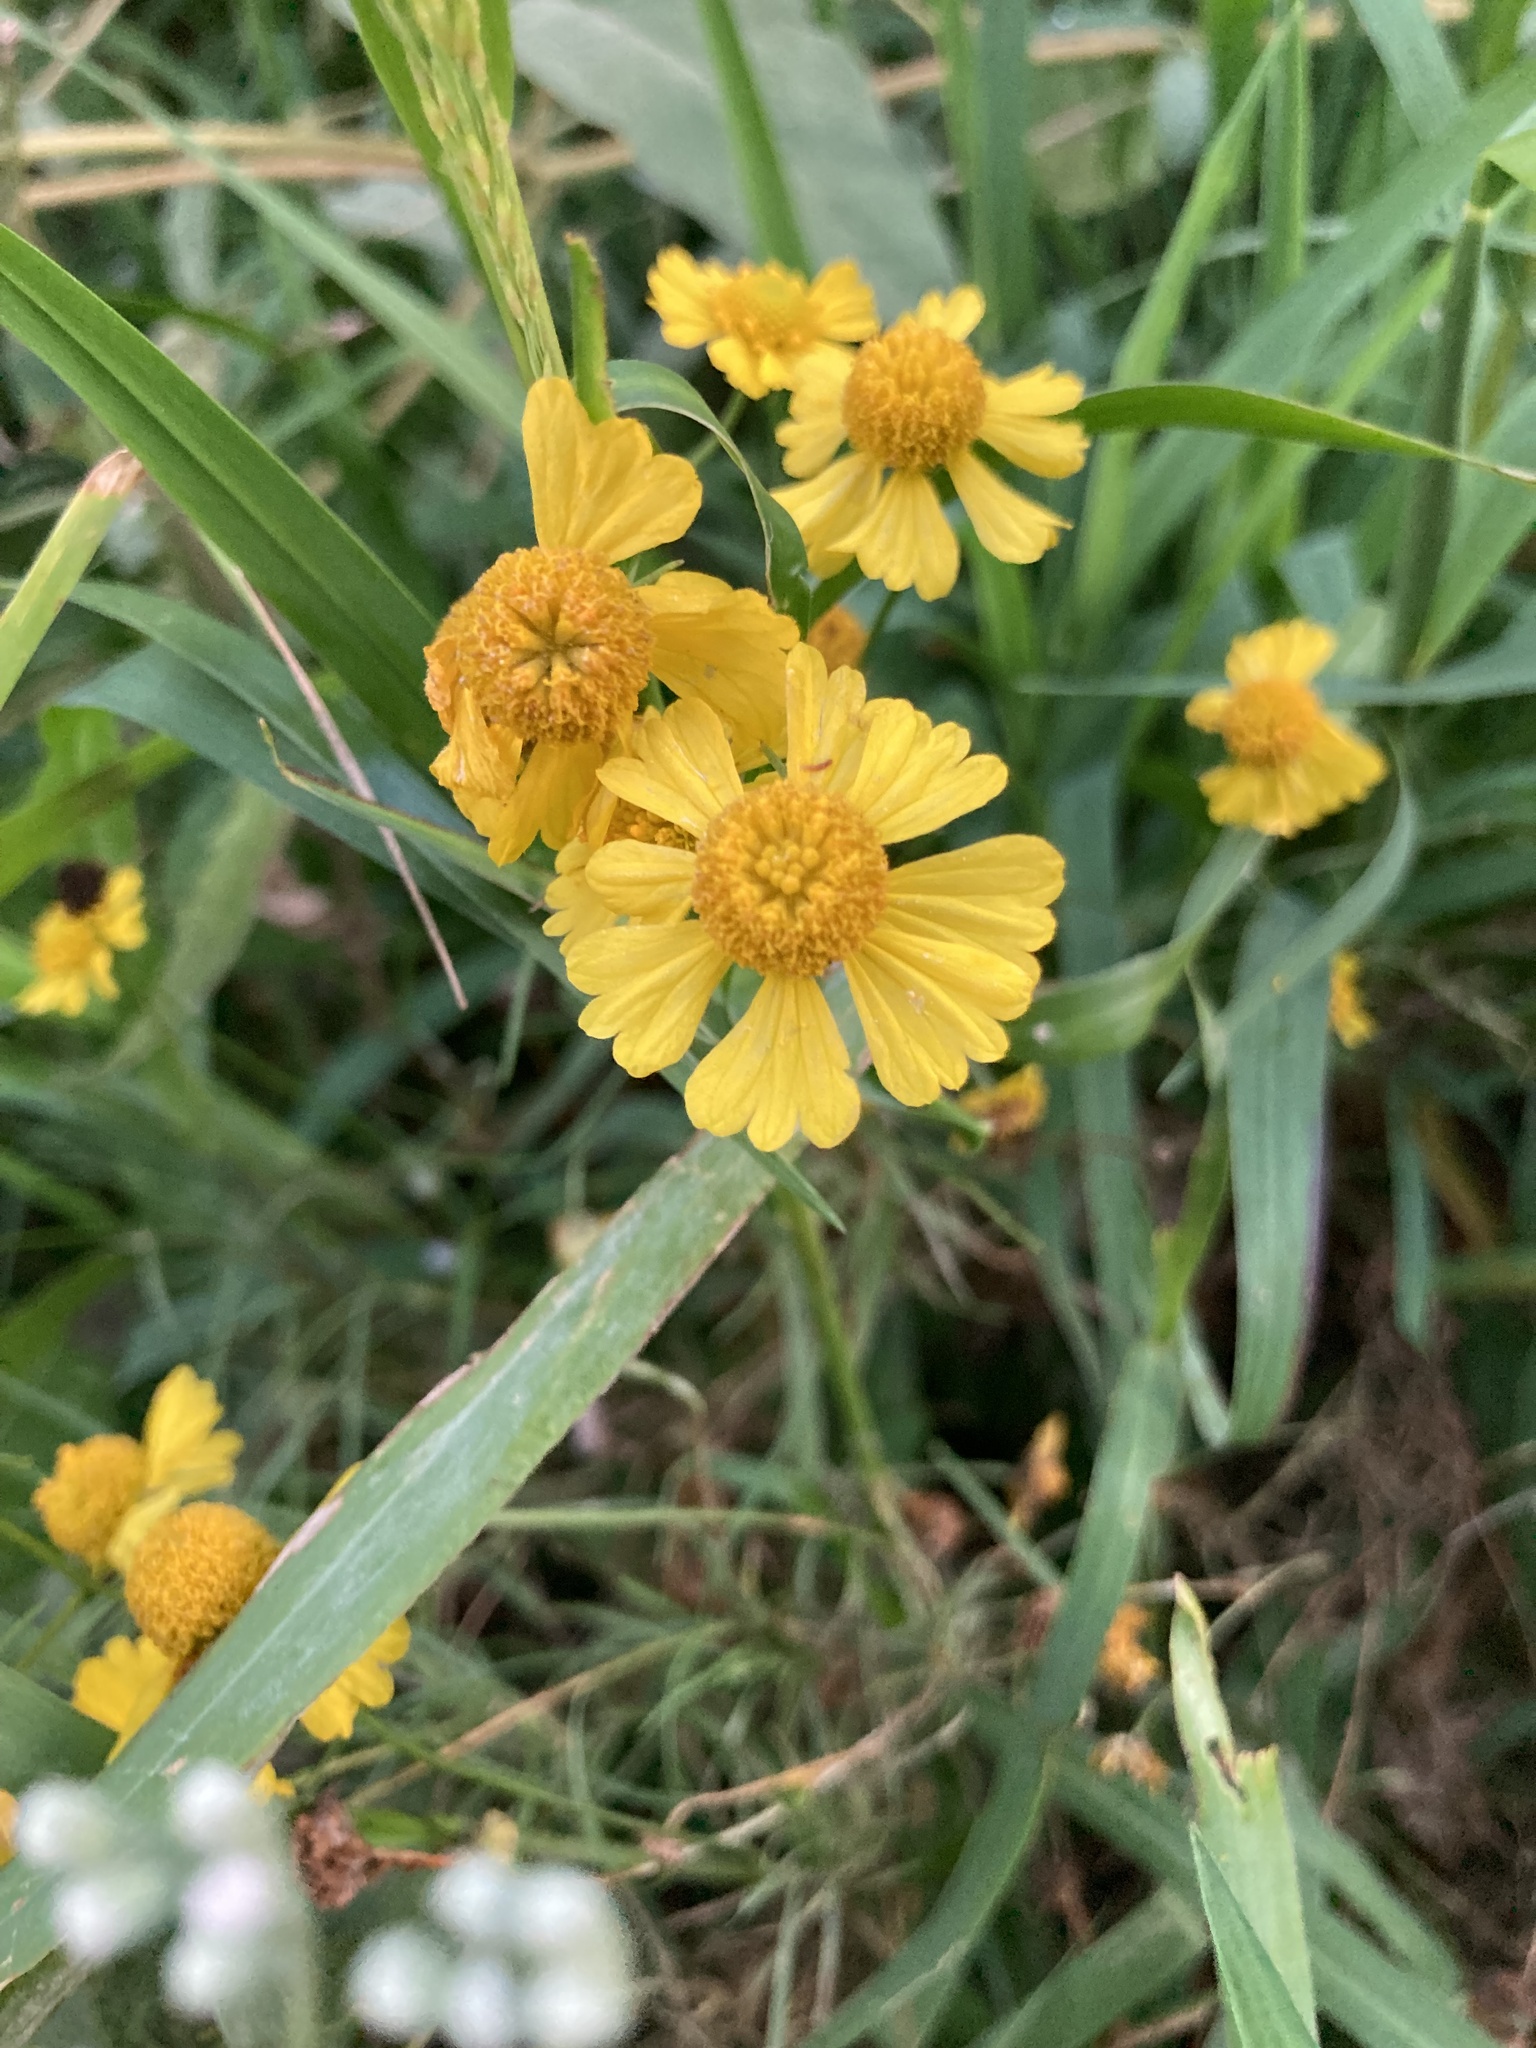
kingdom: Plantae
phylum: Tracheophyta
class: Magnoliopsida
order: Asterales
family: Asteraceae
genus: Helenium
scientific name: Helenium amarum
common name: Bitter sneezeweed
